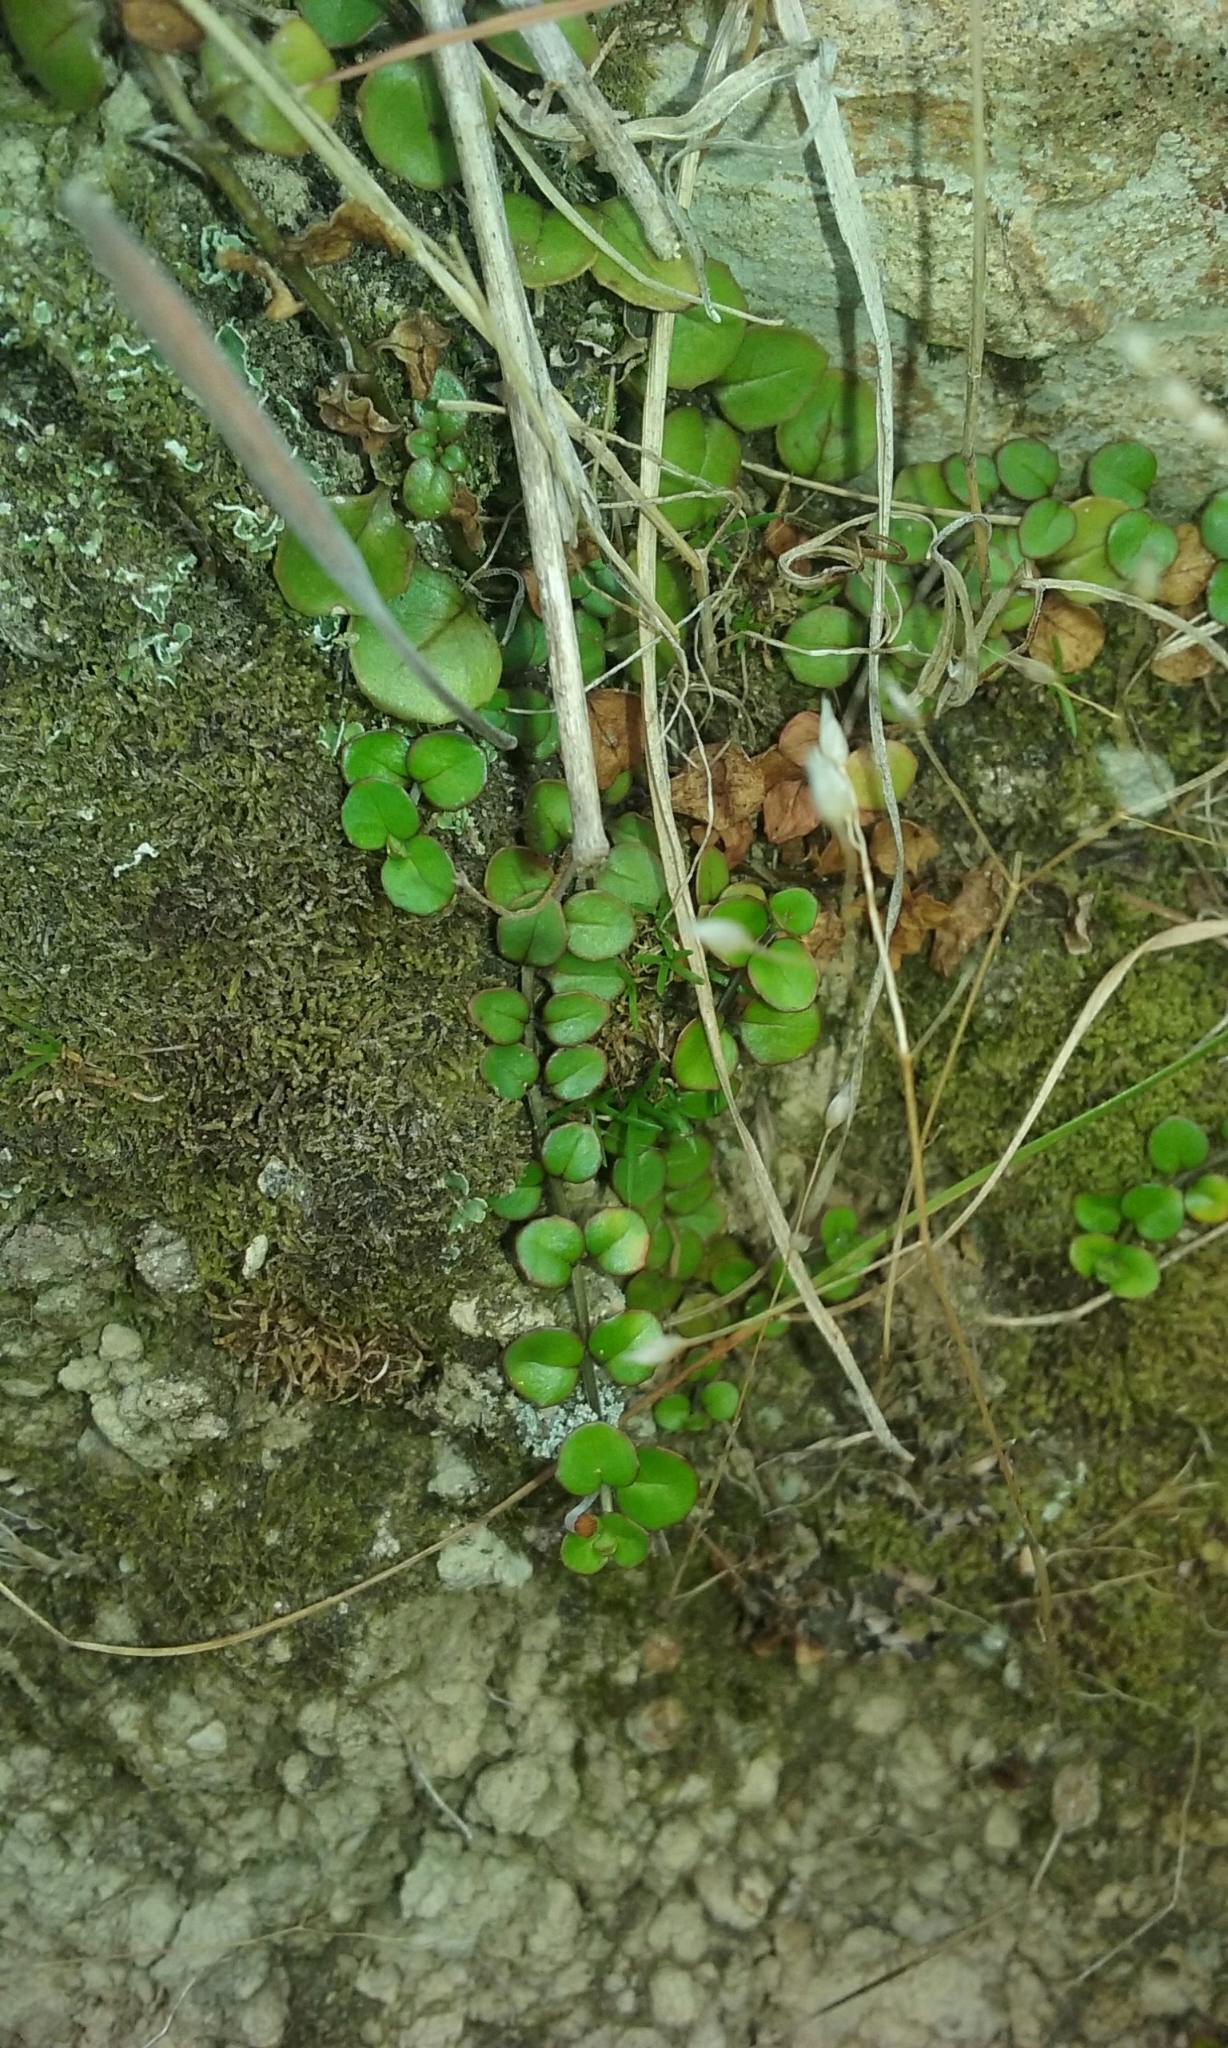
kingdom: Plantae
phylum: Tracheophyta
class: Magnoliopsida
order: Myrtales
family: Onagraceae
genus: Epilobium
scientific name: Epilobium nummularifolium
